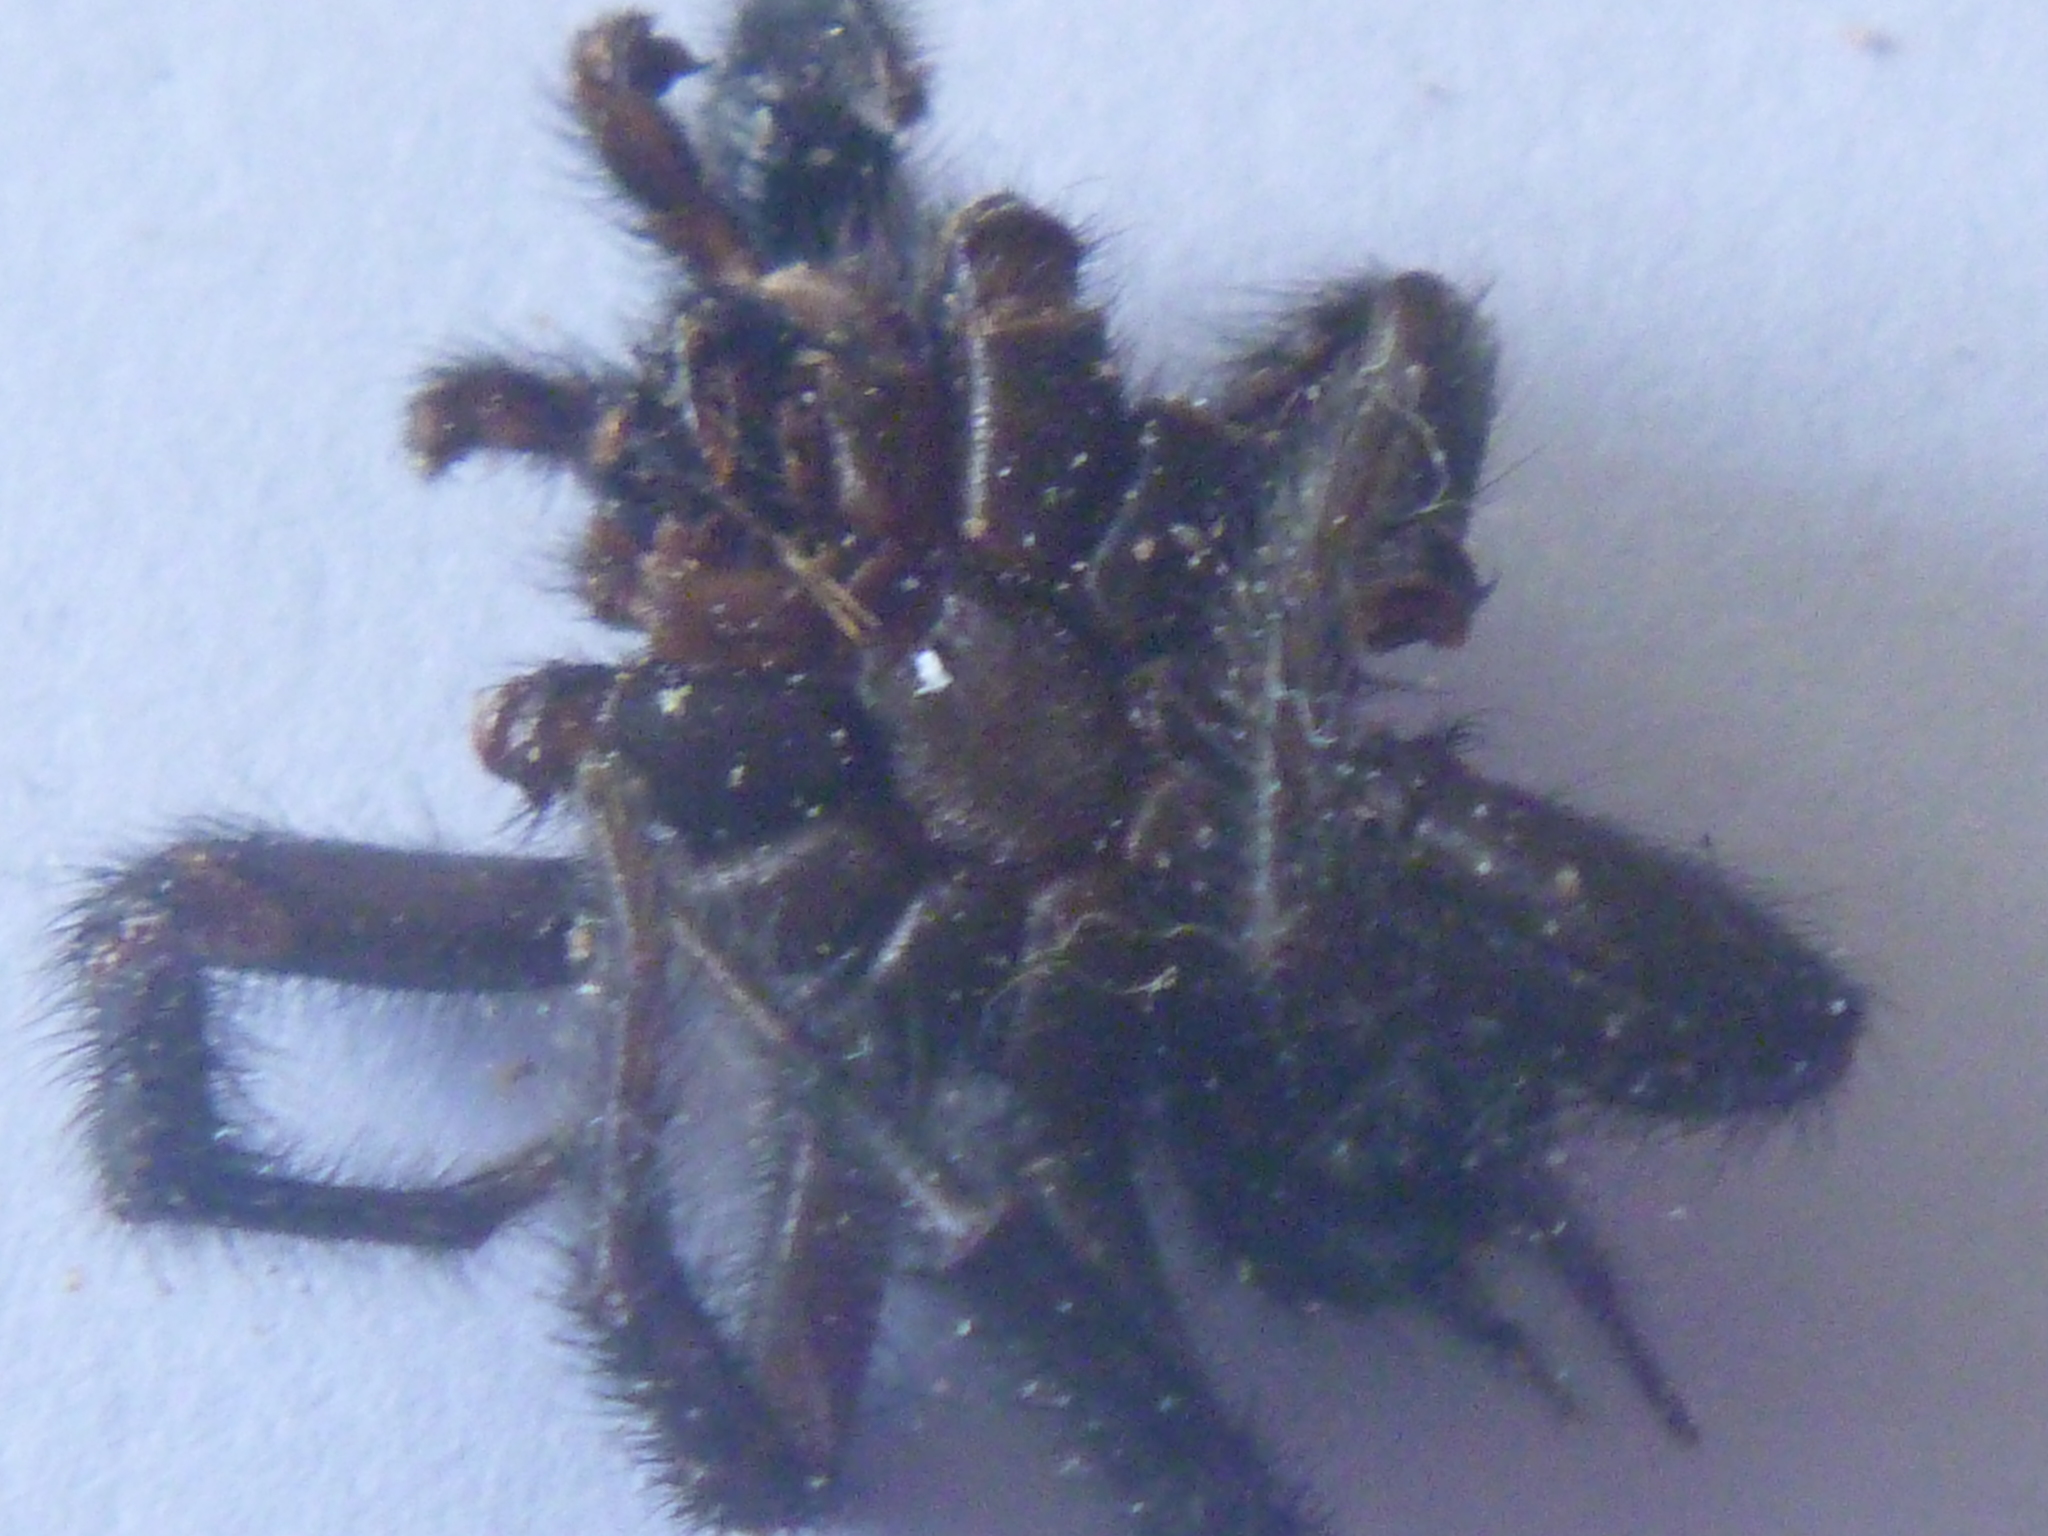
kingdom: Animalia
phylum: Arthropoda
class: Arachnida
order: Araneae
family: Porrhothelidae
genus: Porrhothele
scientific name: Porrhothele antipodiana
